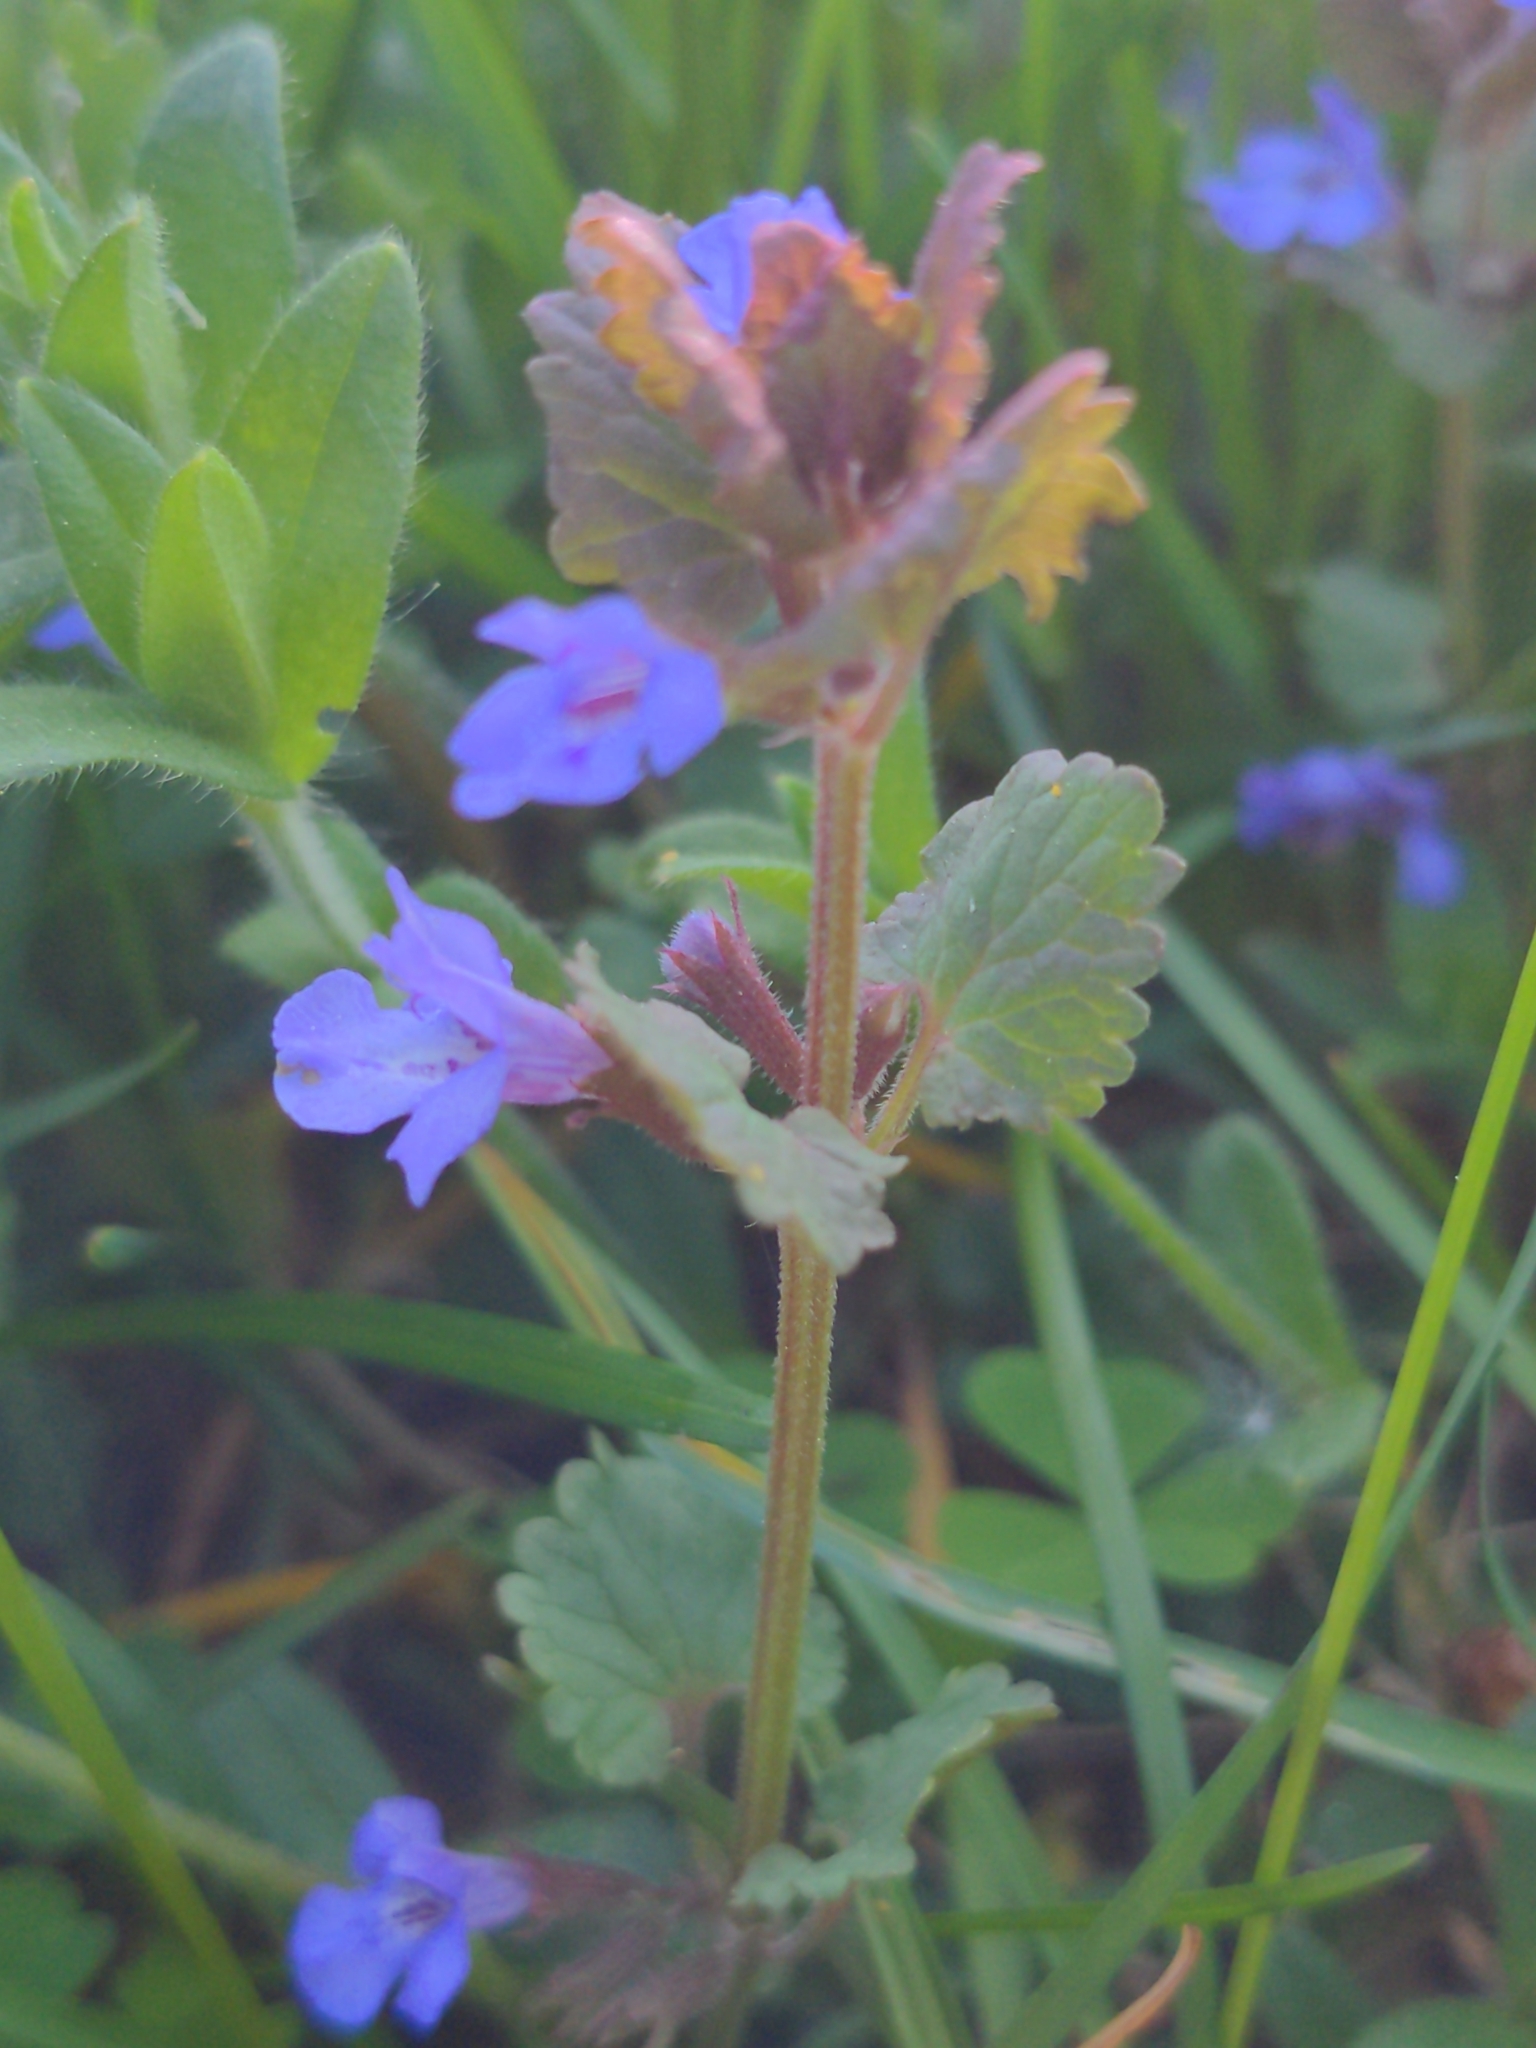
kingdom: Plantae
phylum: Tracheophyta
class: Magnoliopsida
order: Lamiales
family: Lamiaceae
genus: Glechoma
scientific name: Glechoma hederacea
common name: Ground ivy
